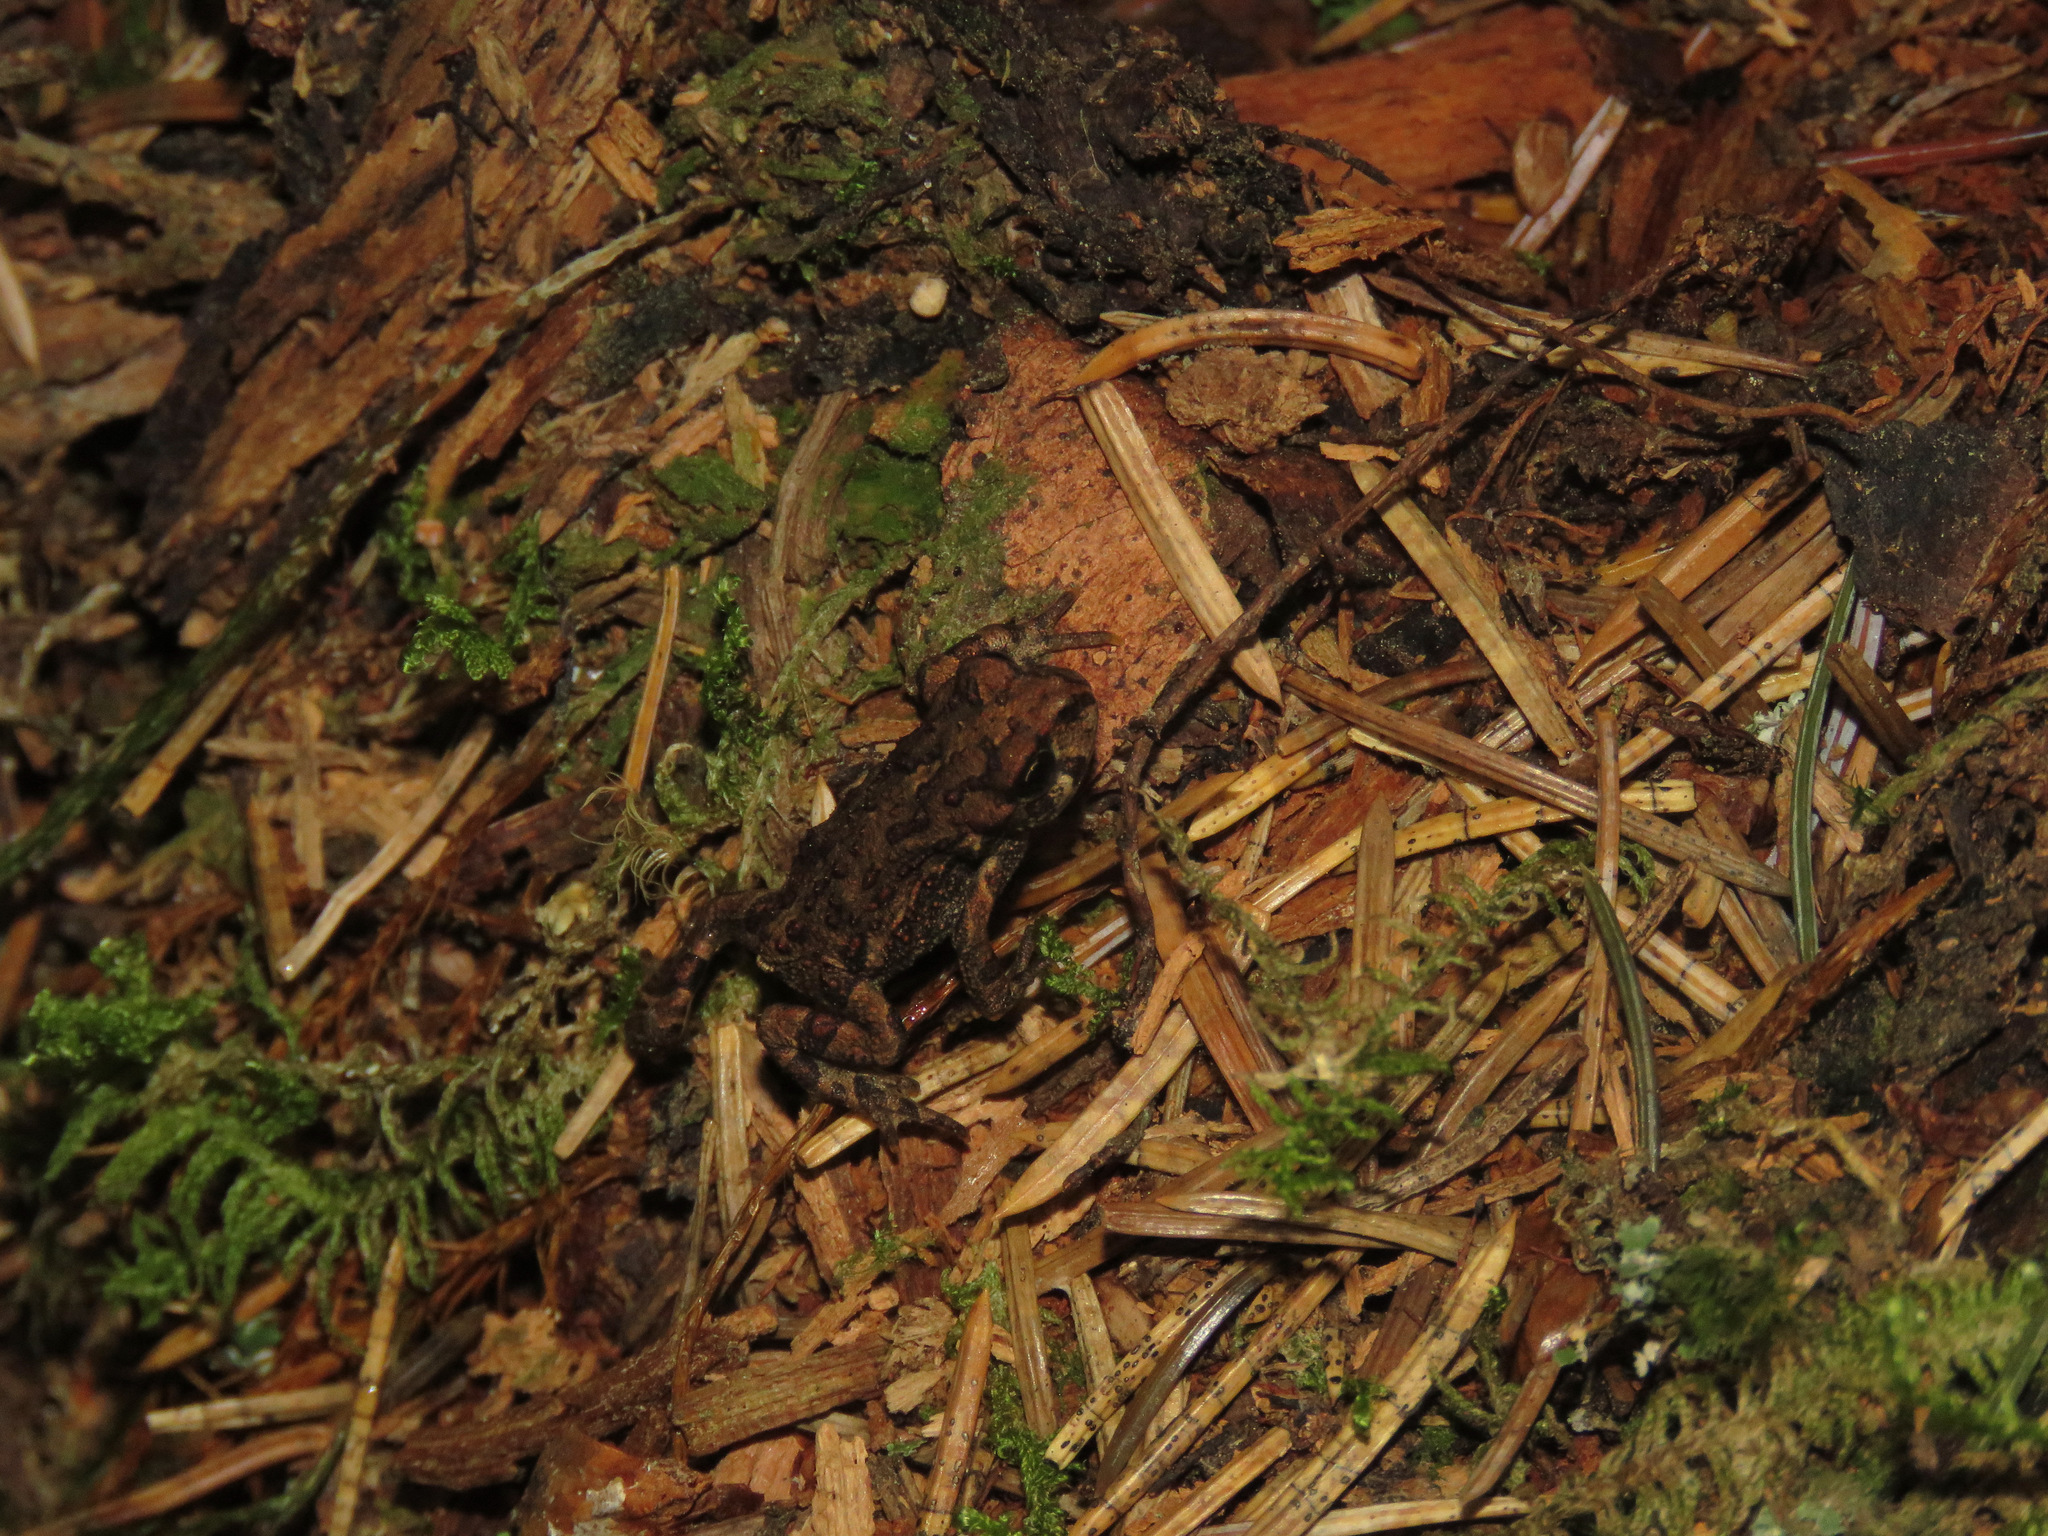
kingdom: Animalia
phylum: Chordata
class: Amphibia
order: Anura
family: Bufonidae
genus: Anaxyrus
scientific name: Anaxyrus boreas
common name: Western toad
